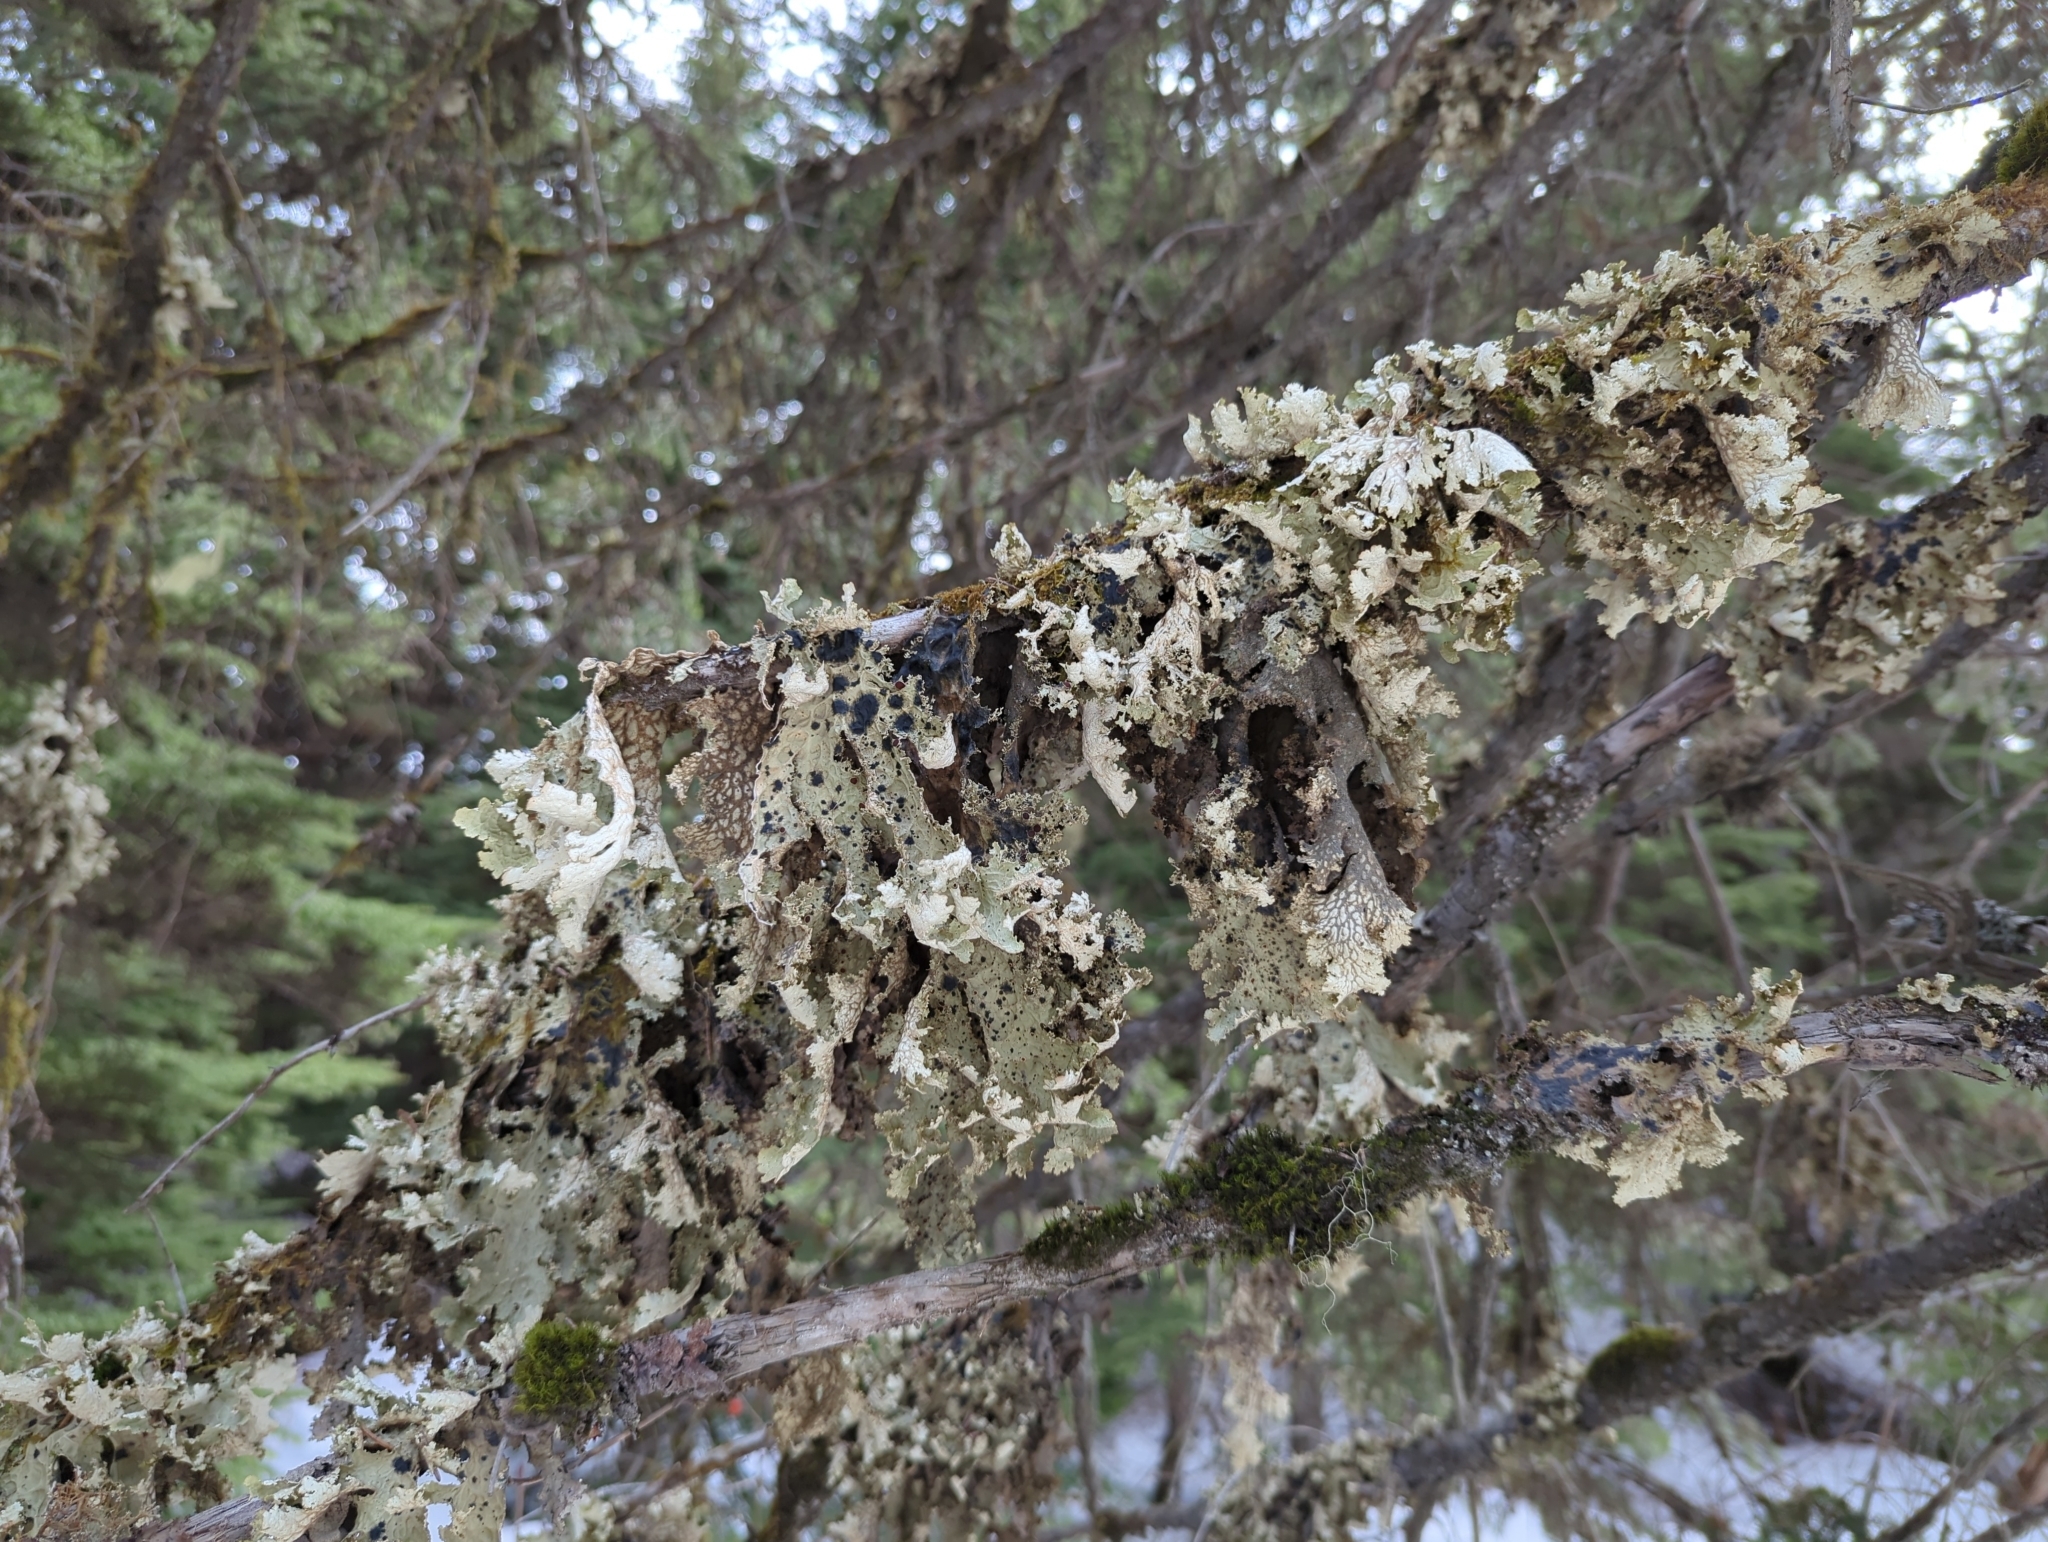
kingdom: Fungi
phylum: Ascomycota
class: Lecanoromycetes
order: Peltigerales
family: Lobariaceae
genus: Lobaria
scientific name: Lobaria oregana
